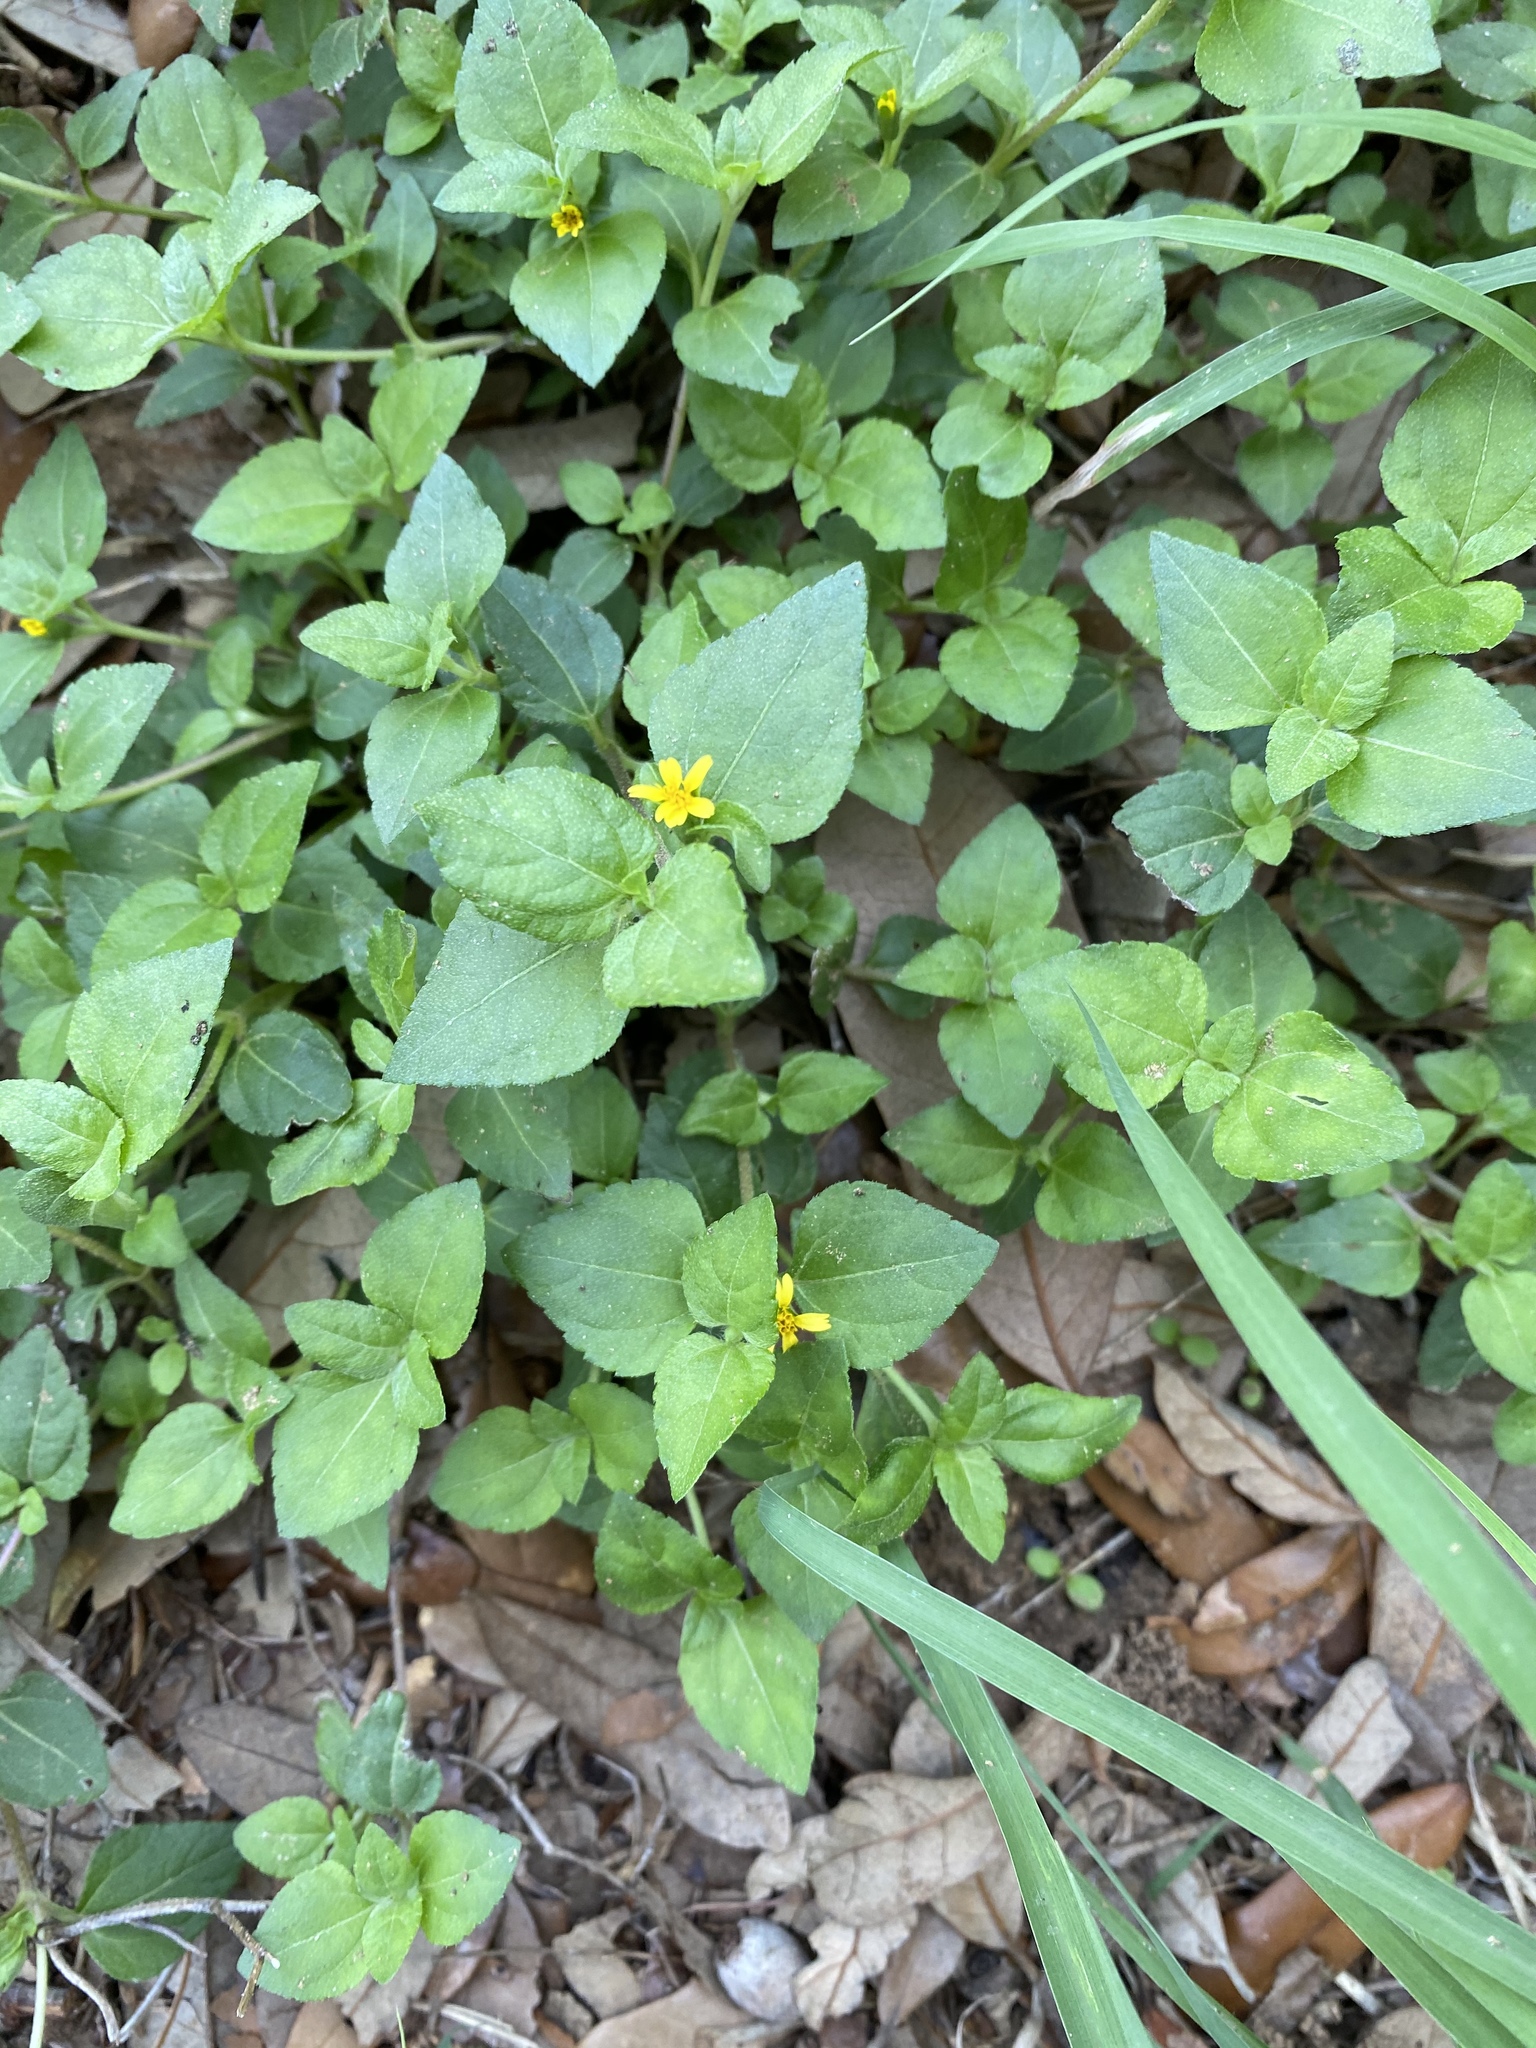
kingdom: Plantae
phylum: Tracheophyta
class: Magnoliopsida
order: Asterales
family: Asteraceae
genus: Calyptocarpus
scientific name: Calyptocarpus vialis
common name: Straggler daisy
